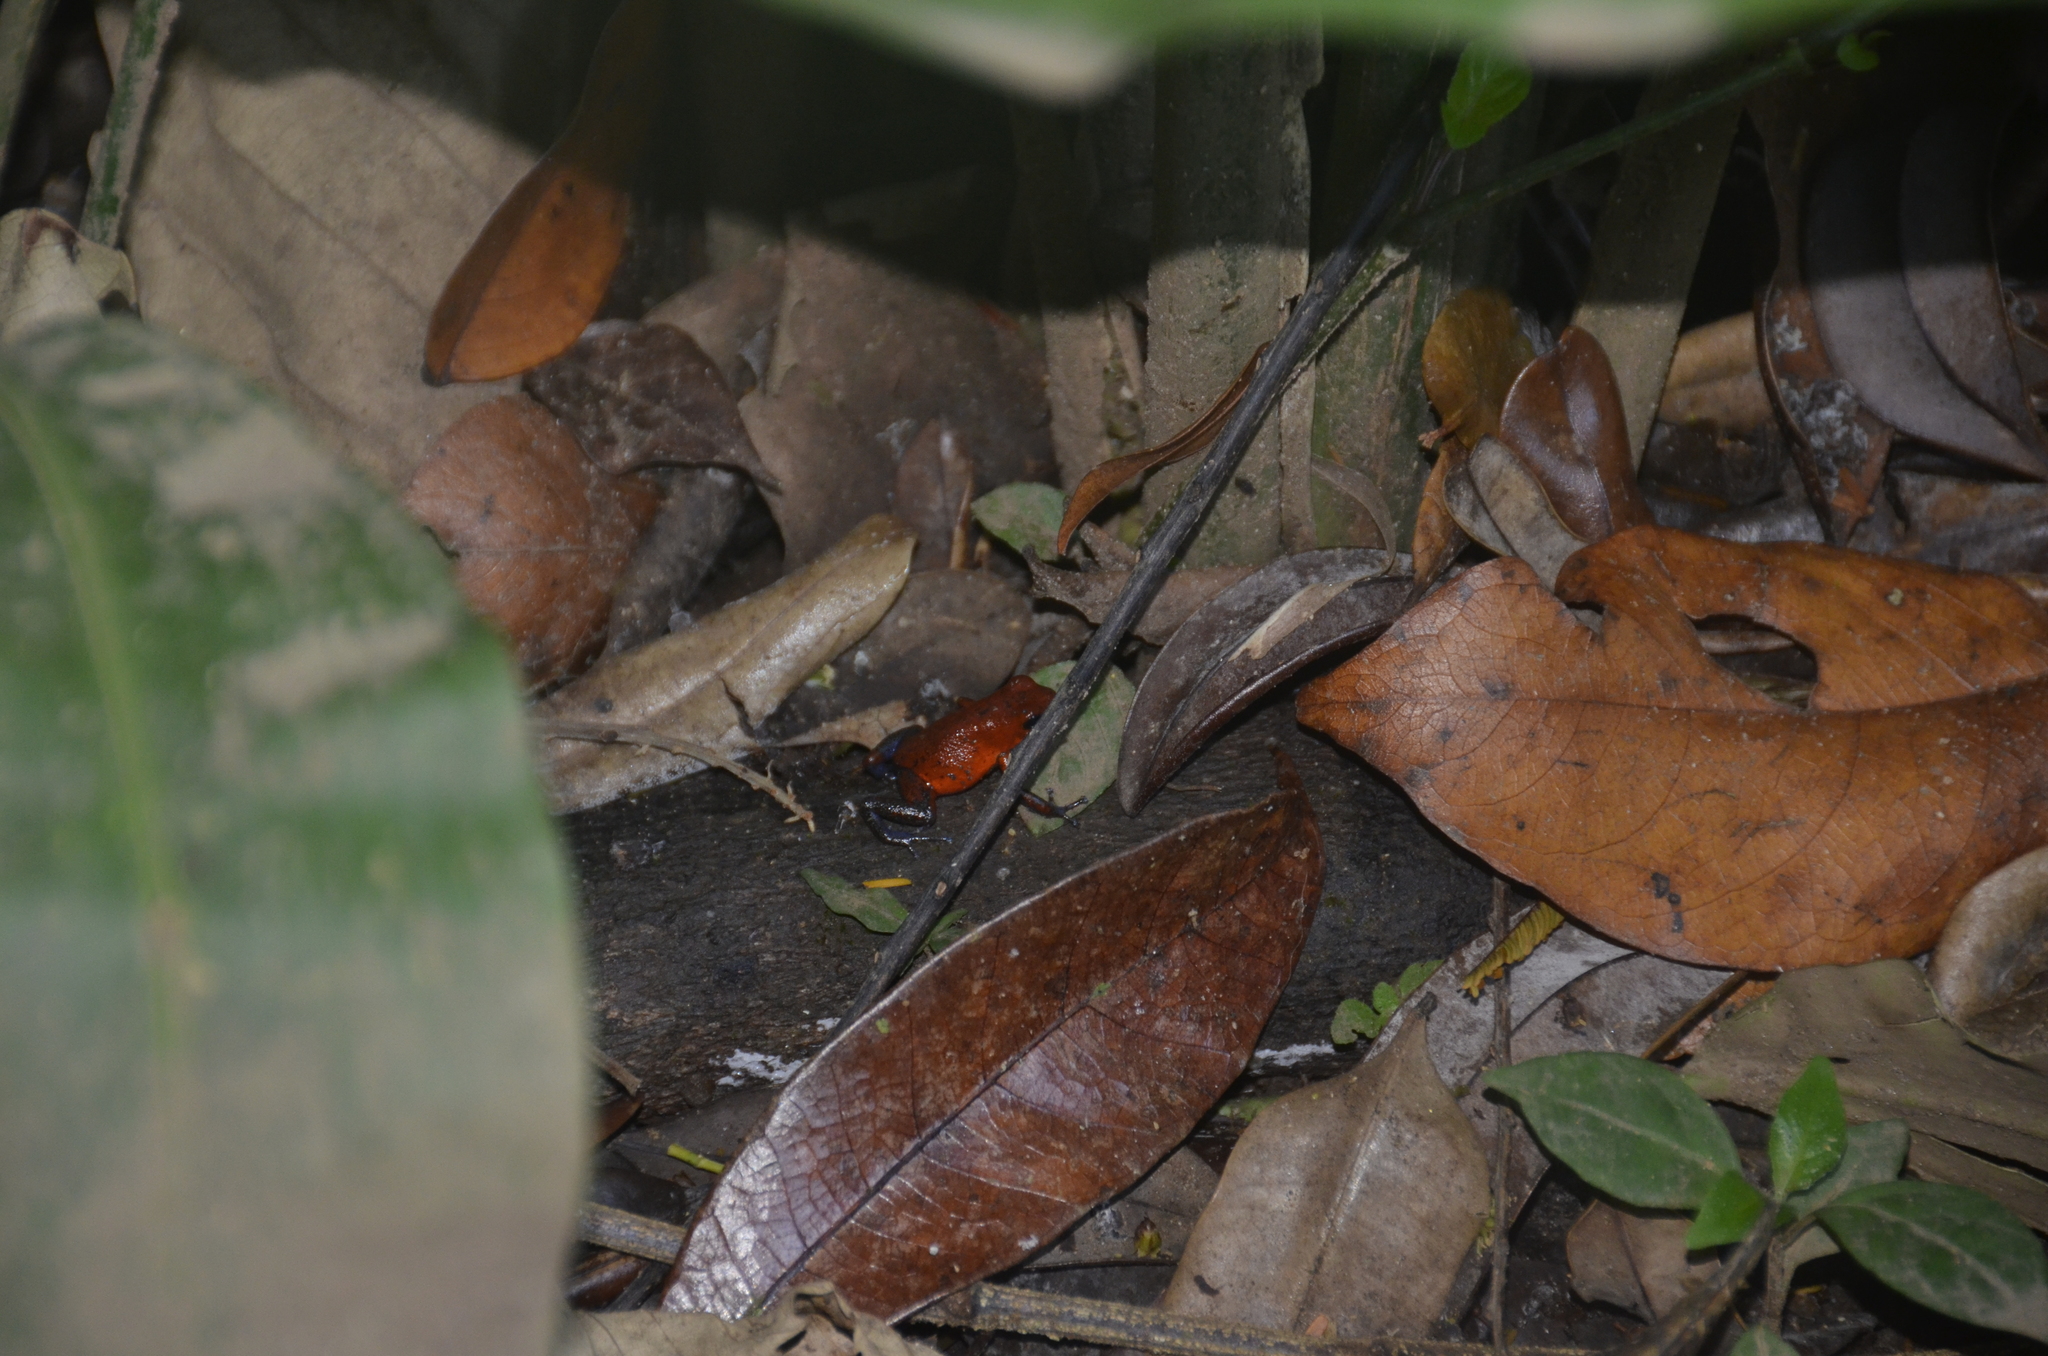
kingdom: Animalia
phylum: Chordata
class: Amphibia
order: Anura
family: Dendrobatidae
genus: Oophaga
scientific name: Oophaga pumilio
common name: Flaming poison frog
